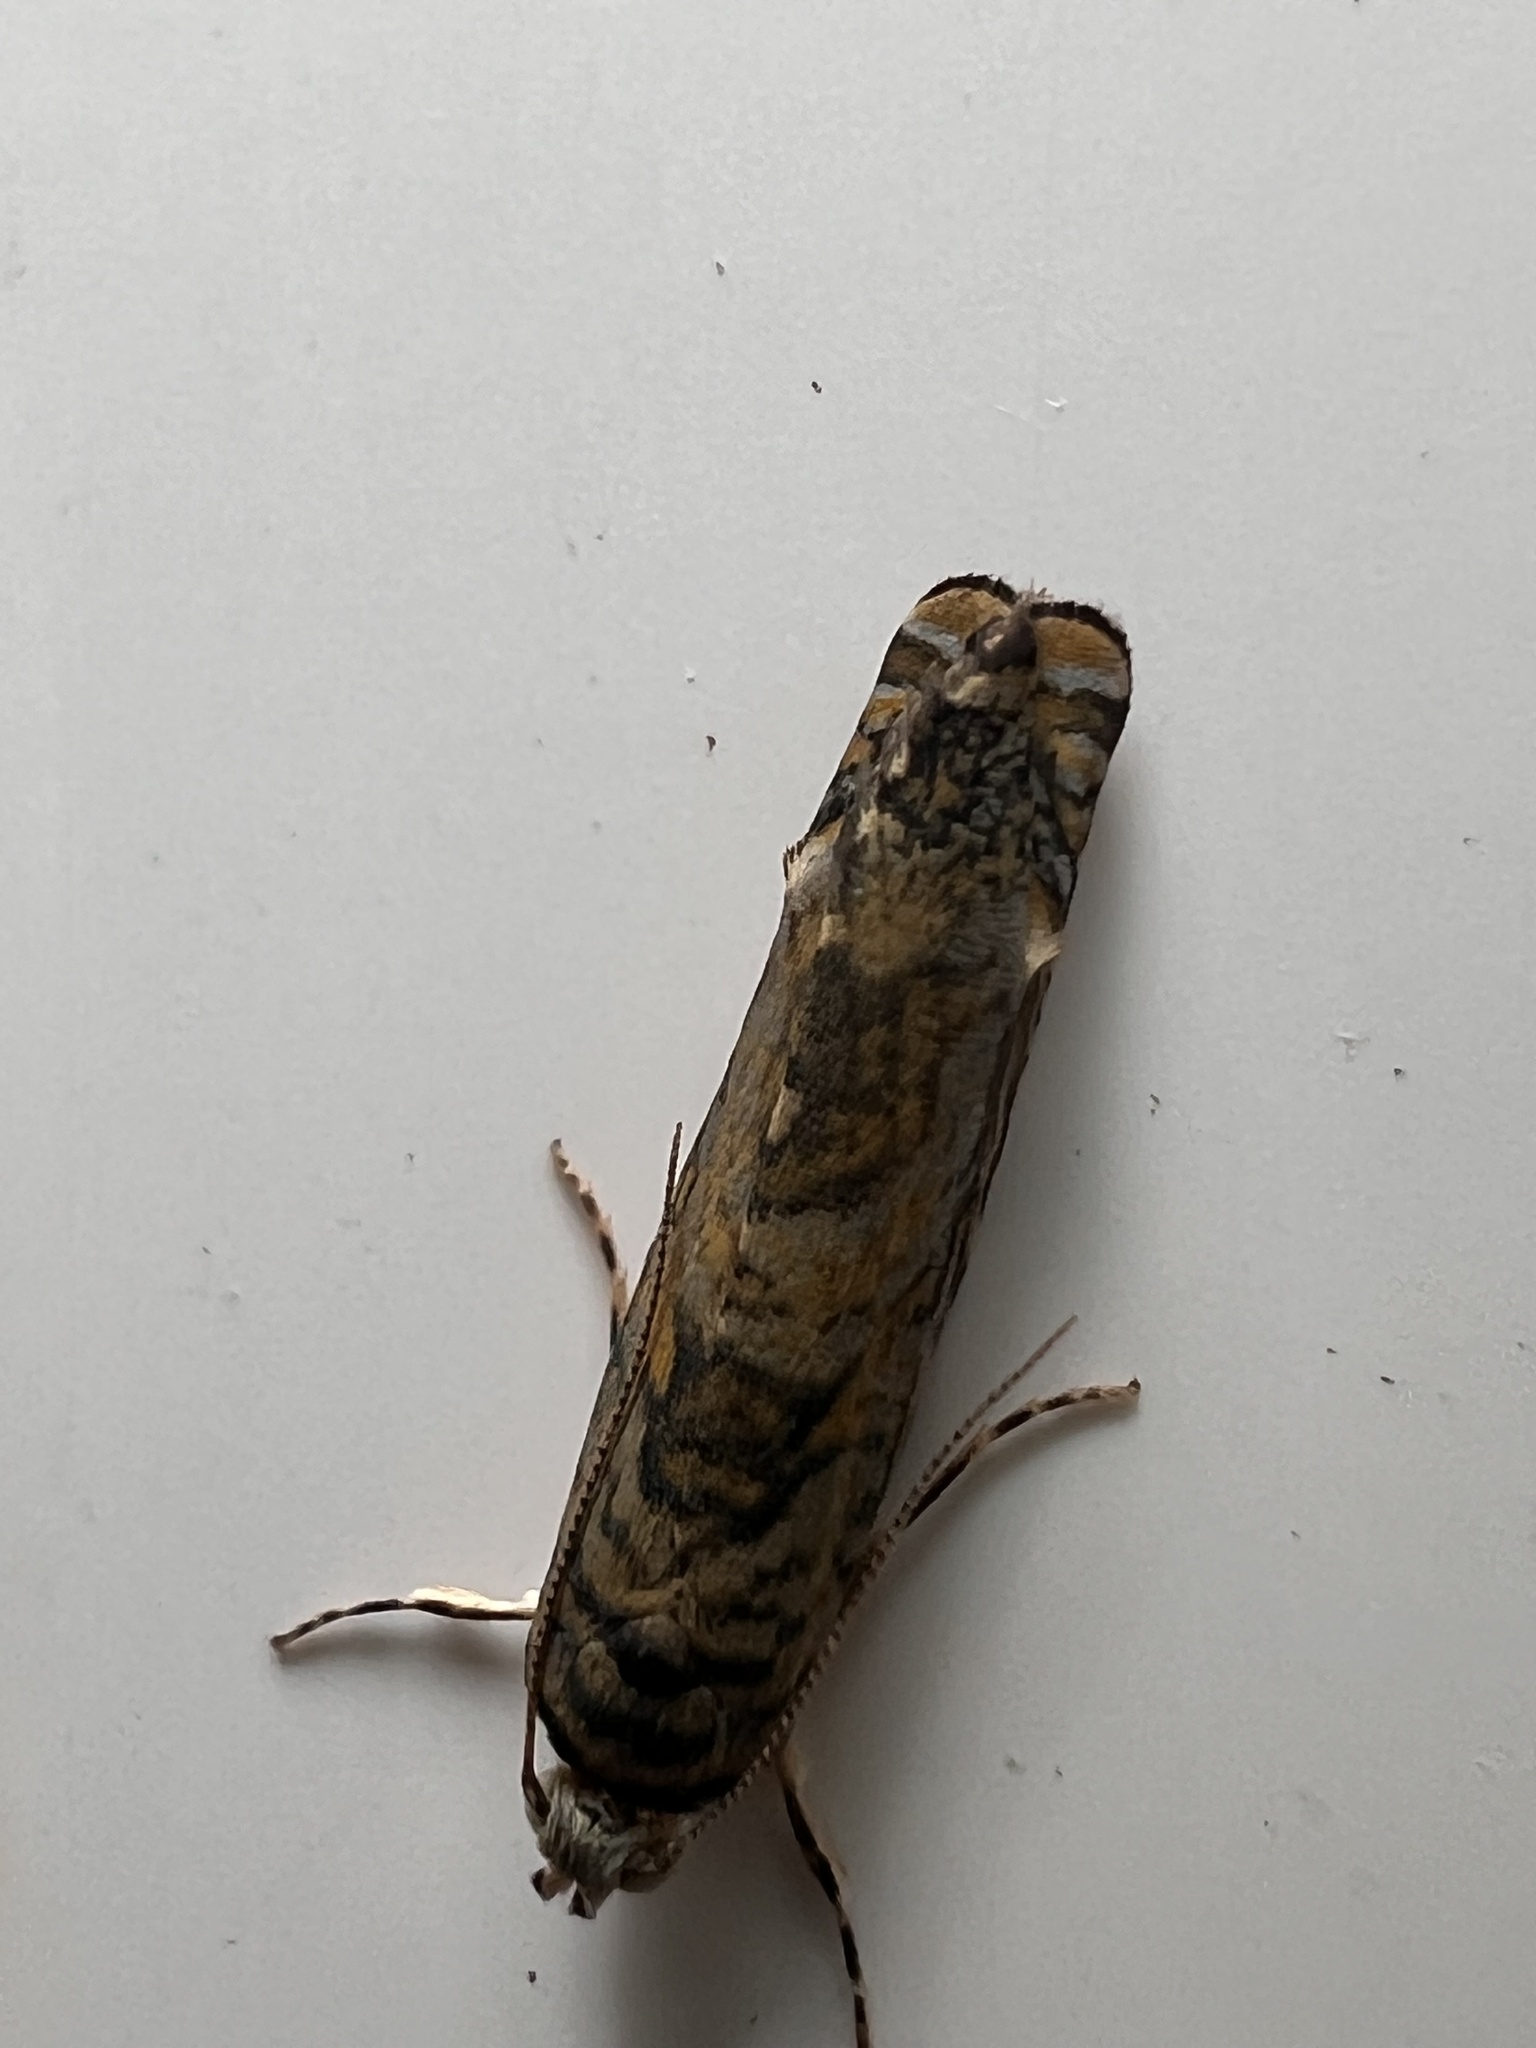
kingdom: Animalia
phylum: Arthropoda
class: Insecta
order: Lepidoptera
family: Plutellidae
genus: Doxophyrtis
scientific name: Doxophyrtis hydrocosma
